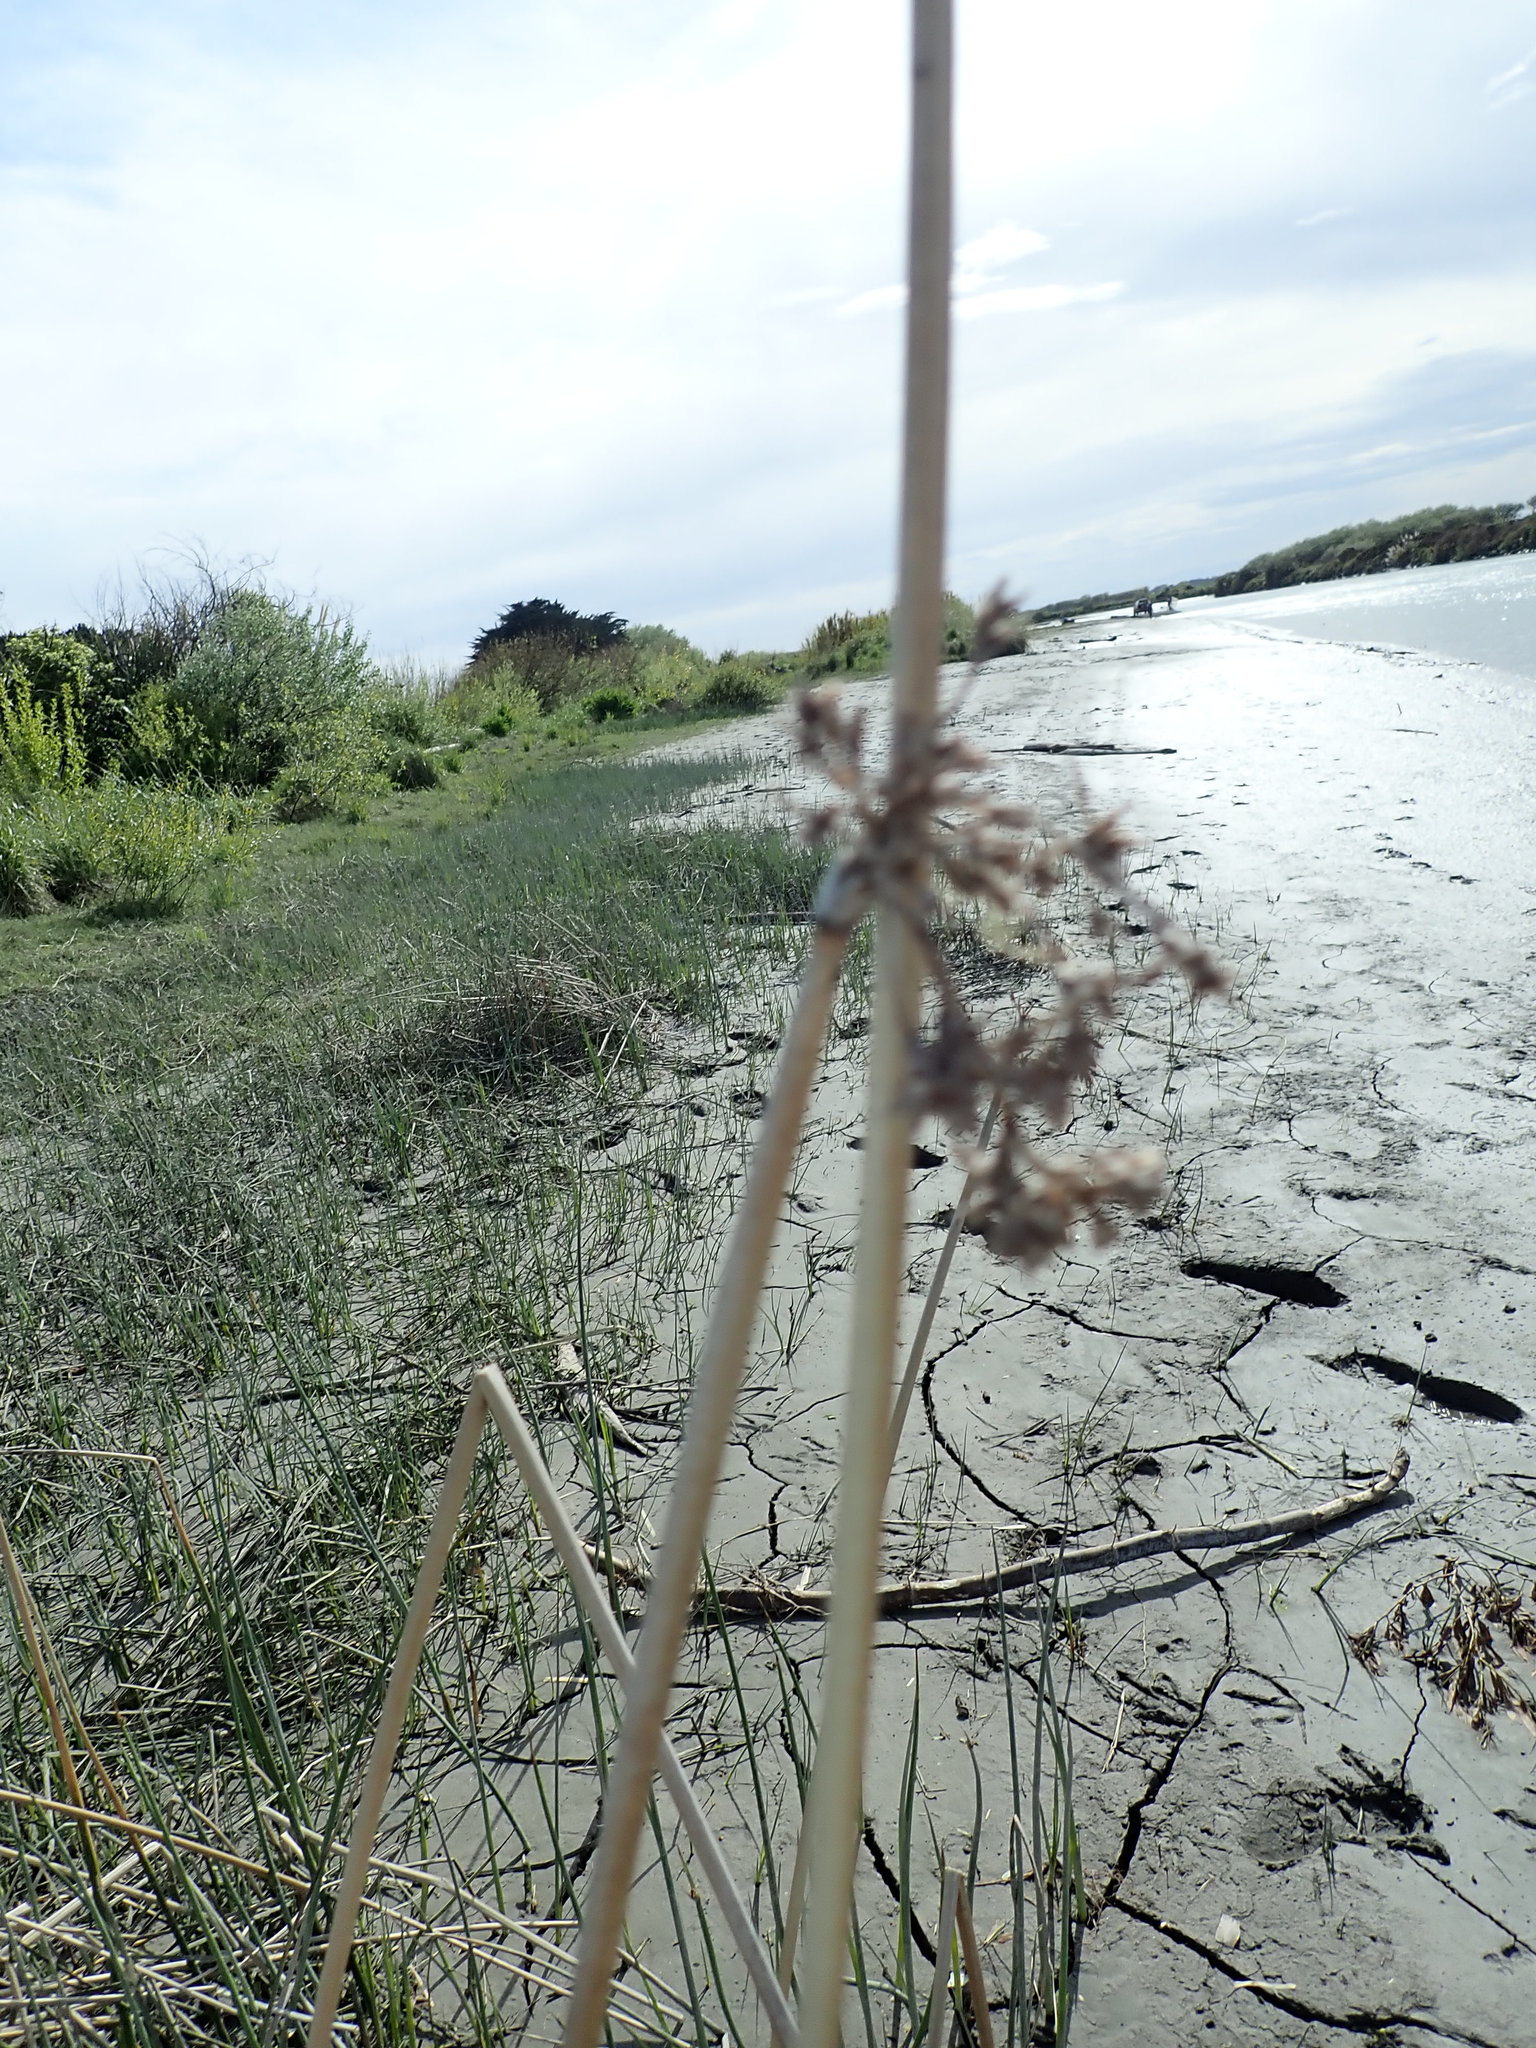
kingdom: Plantae
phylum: Tracheophyta
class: Liliopsida
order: Poales
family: Cyperaceae
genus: Schoenoplectus
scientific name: Schoenoplectus tabernaemontani
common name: Grey club-rush
